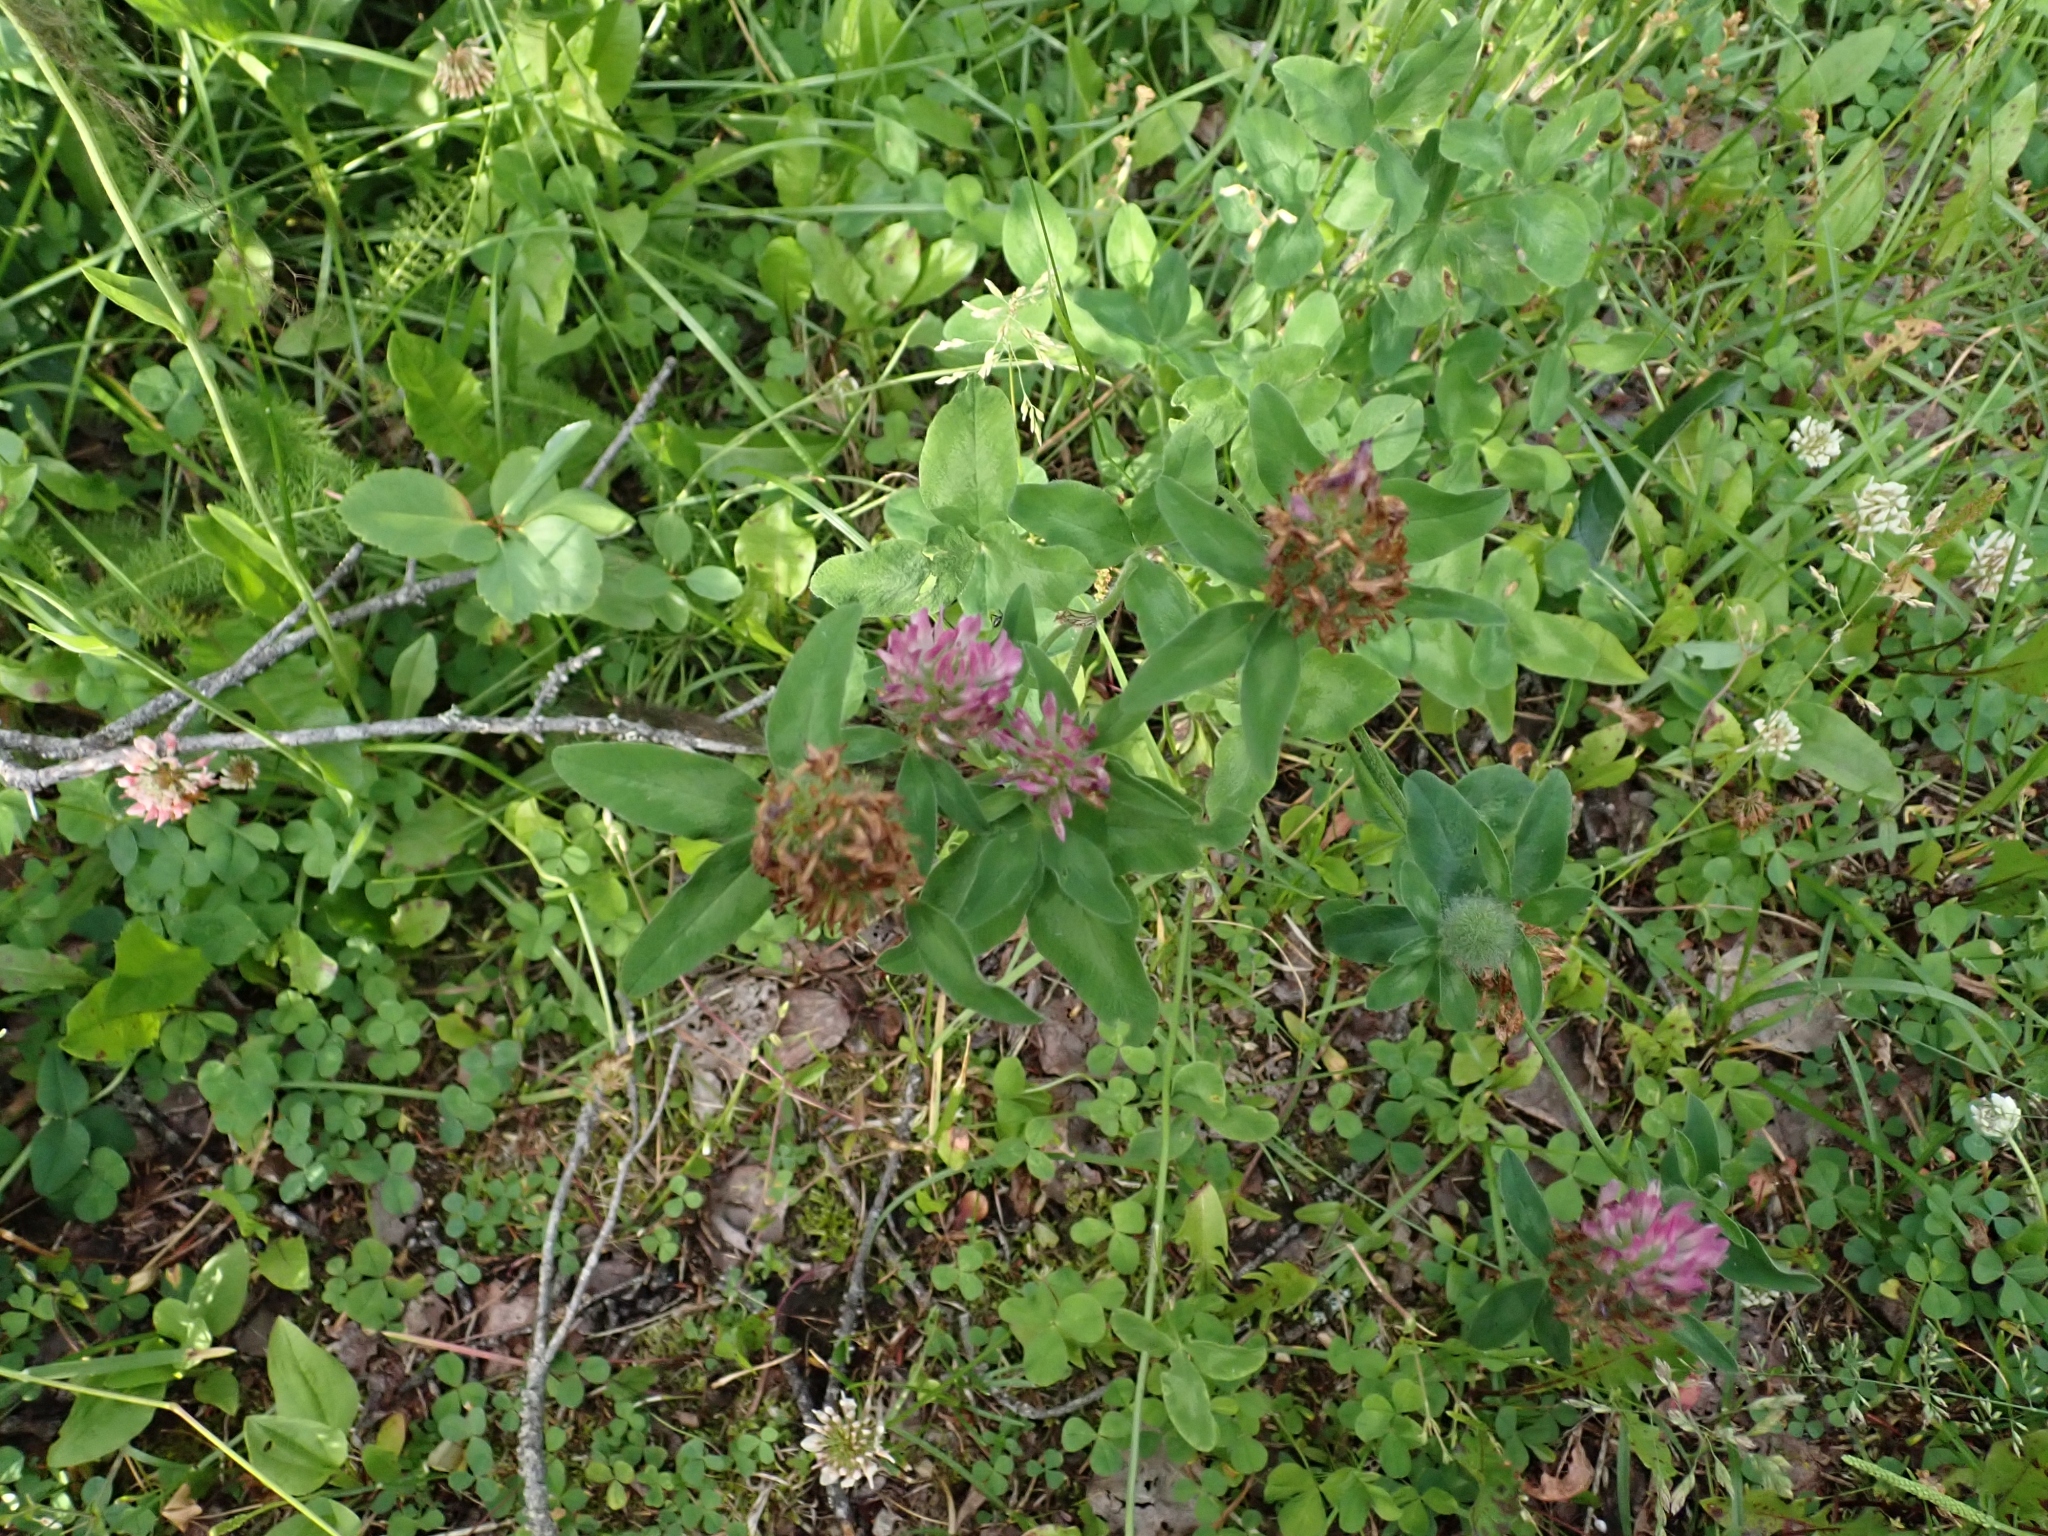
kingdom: Plantae
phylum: Tracheophyta
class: Magnoliopsida
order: Fabales
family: Fabaceae
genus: Trifolium
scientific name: Trifolium pratense
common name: Red clover
